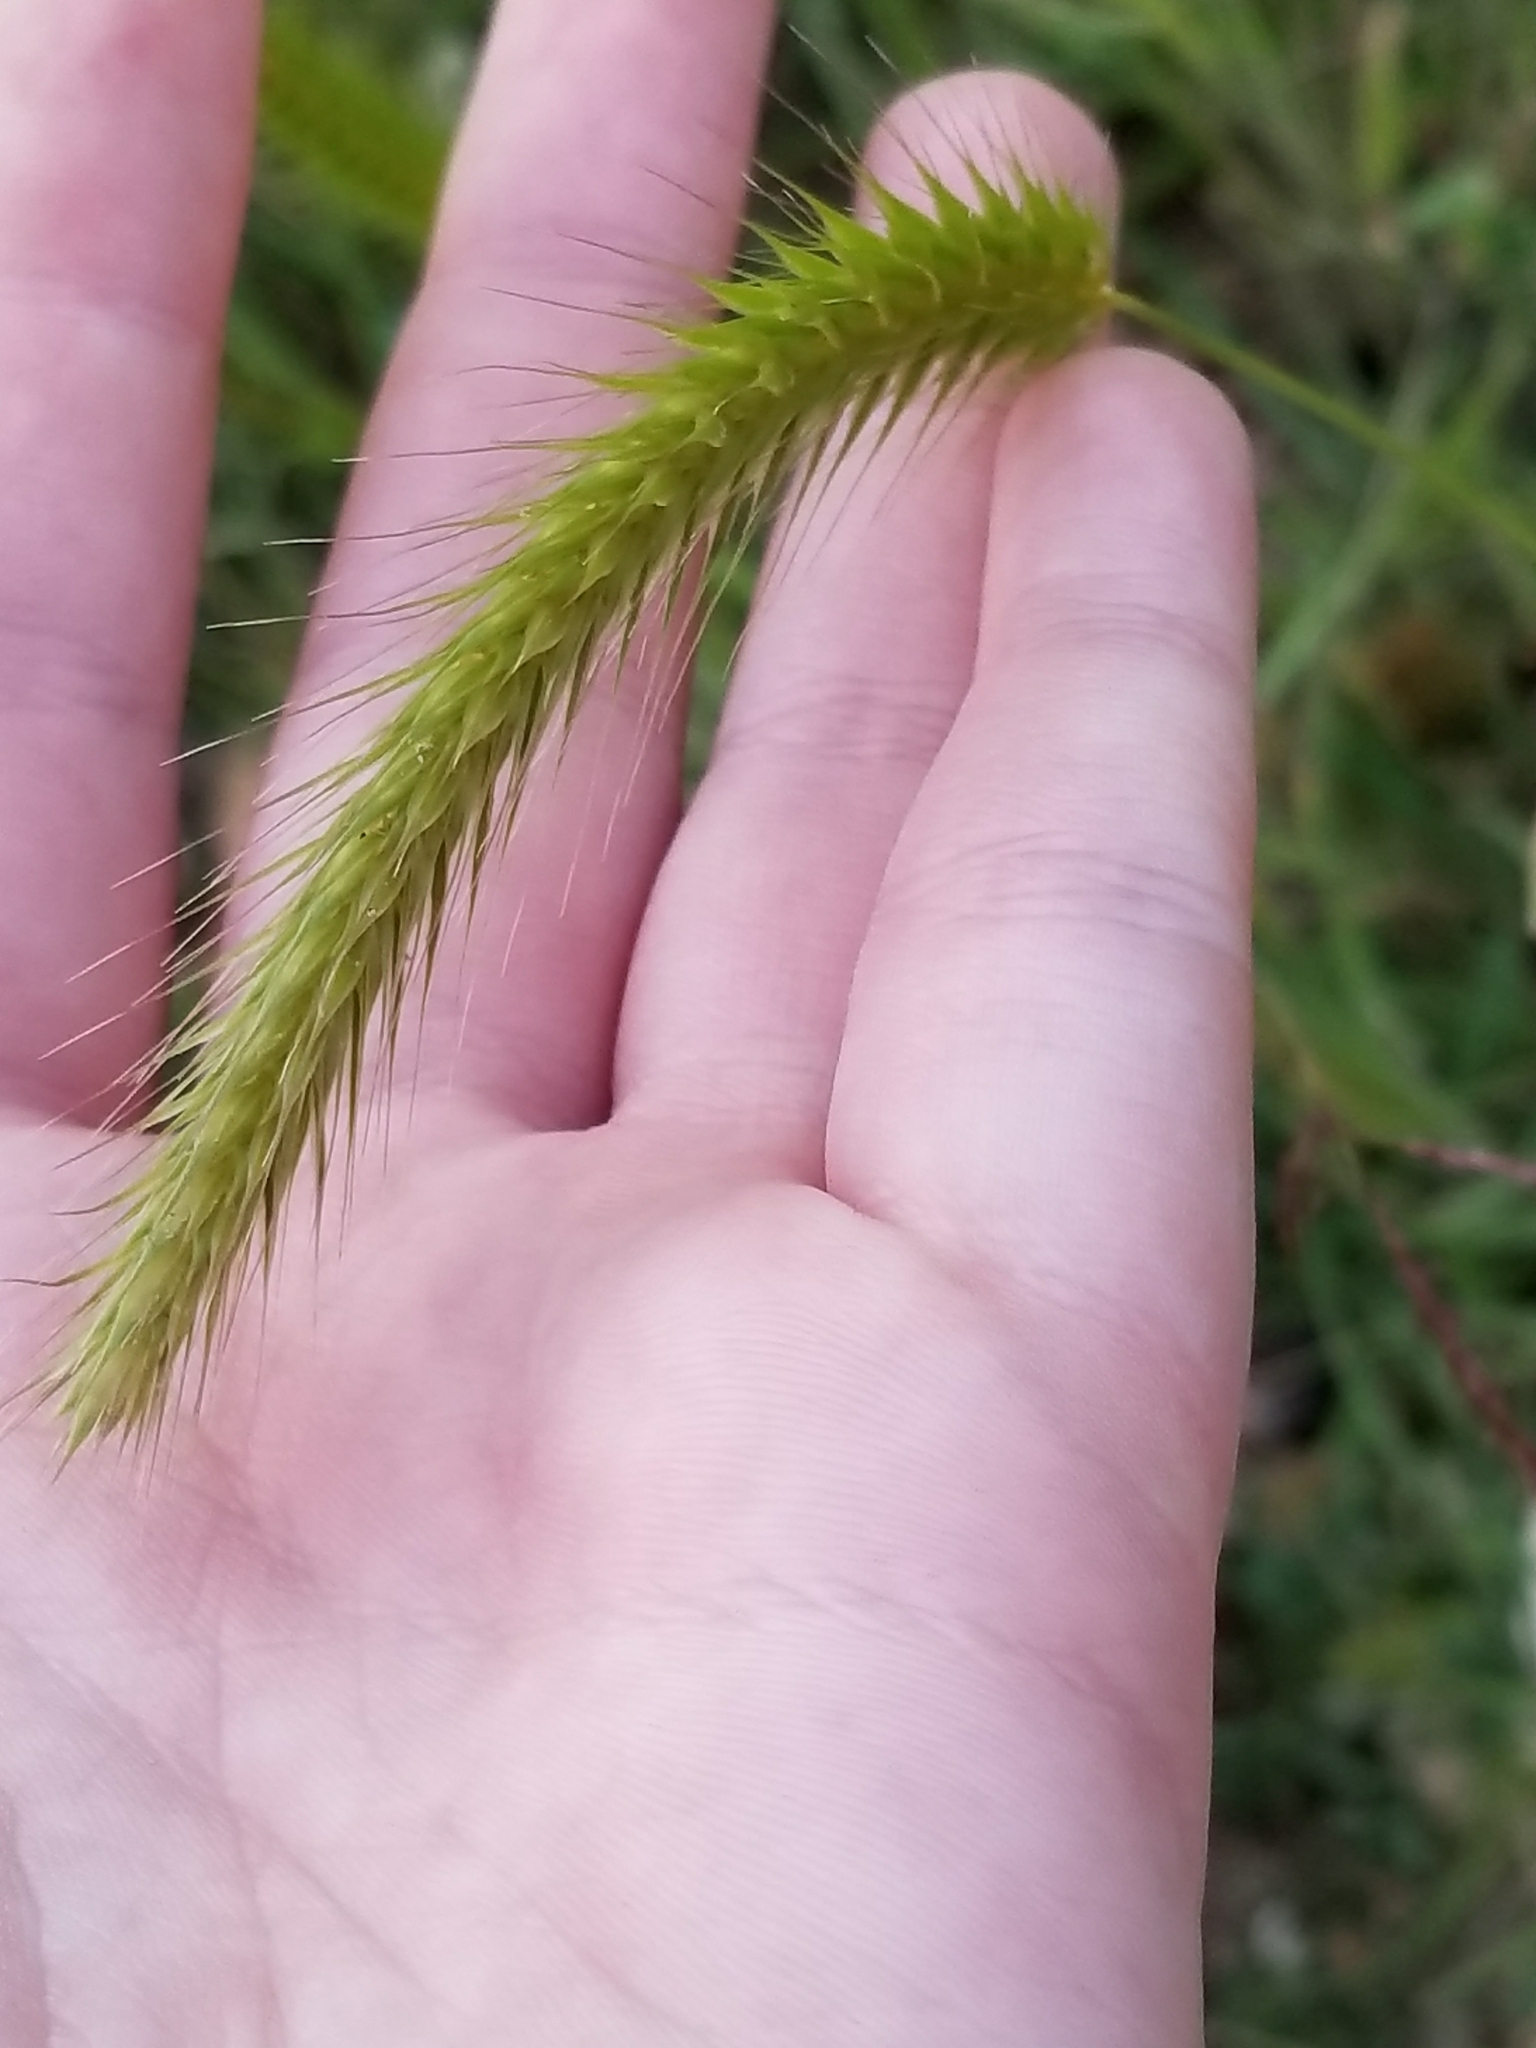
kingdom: Plantae
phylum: Tracheophyta
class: Liliopsida
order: Poales
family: Poaceae
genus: Hordeum
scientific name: Hordeum pusillum
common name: Little barley
